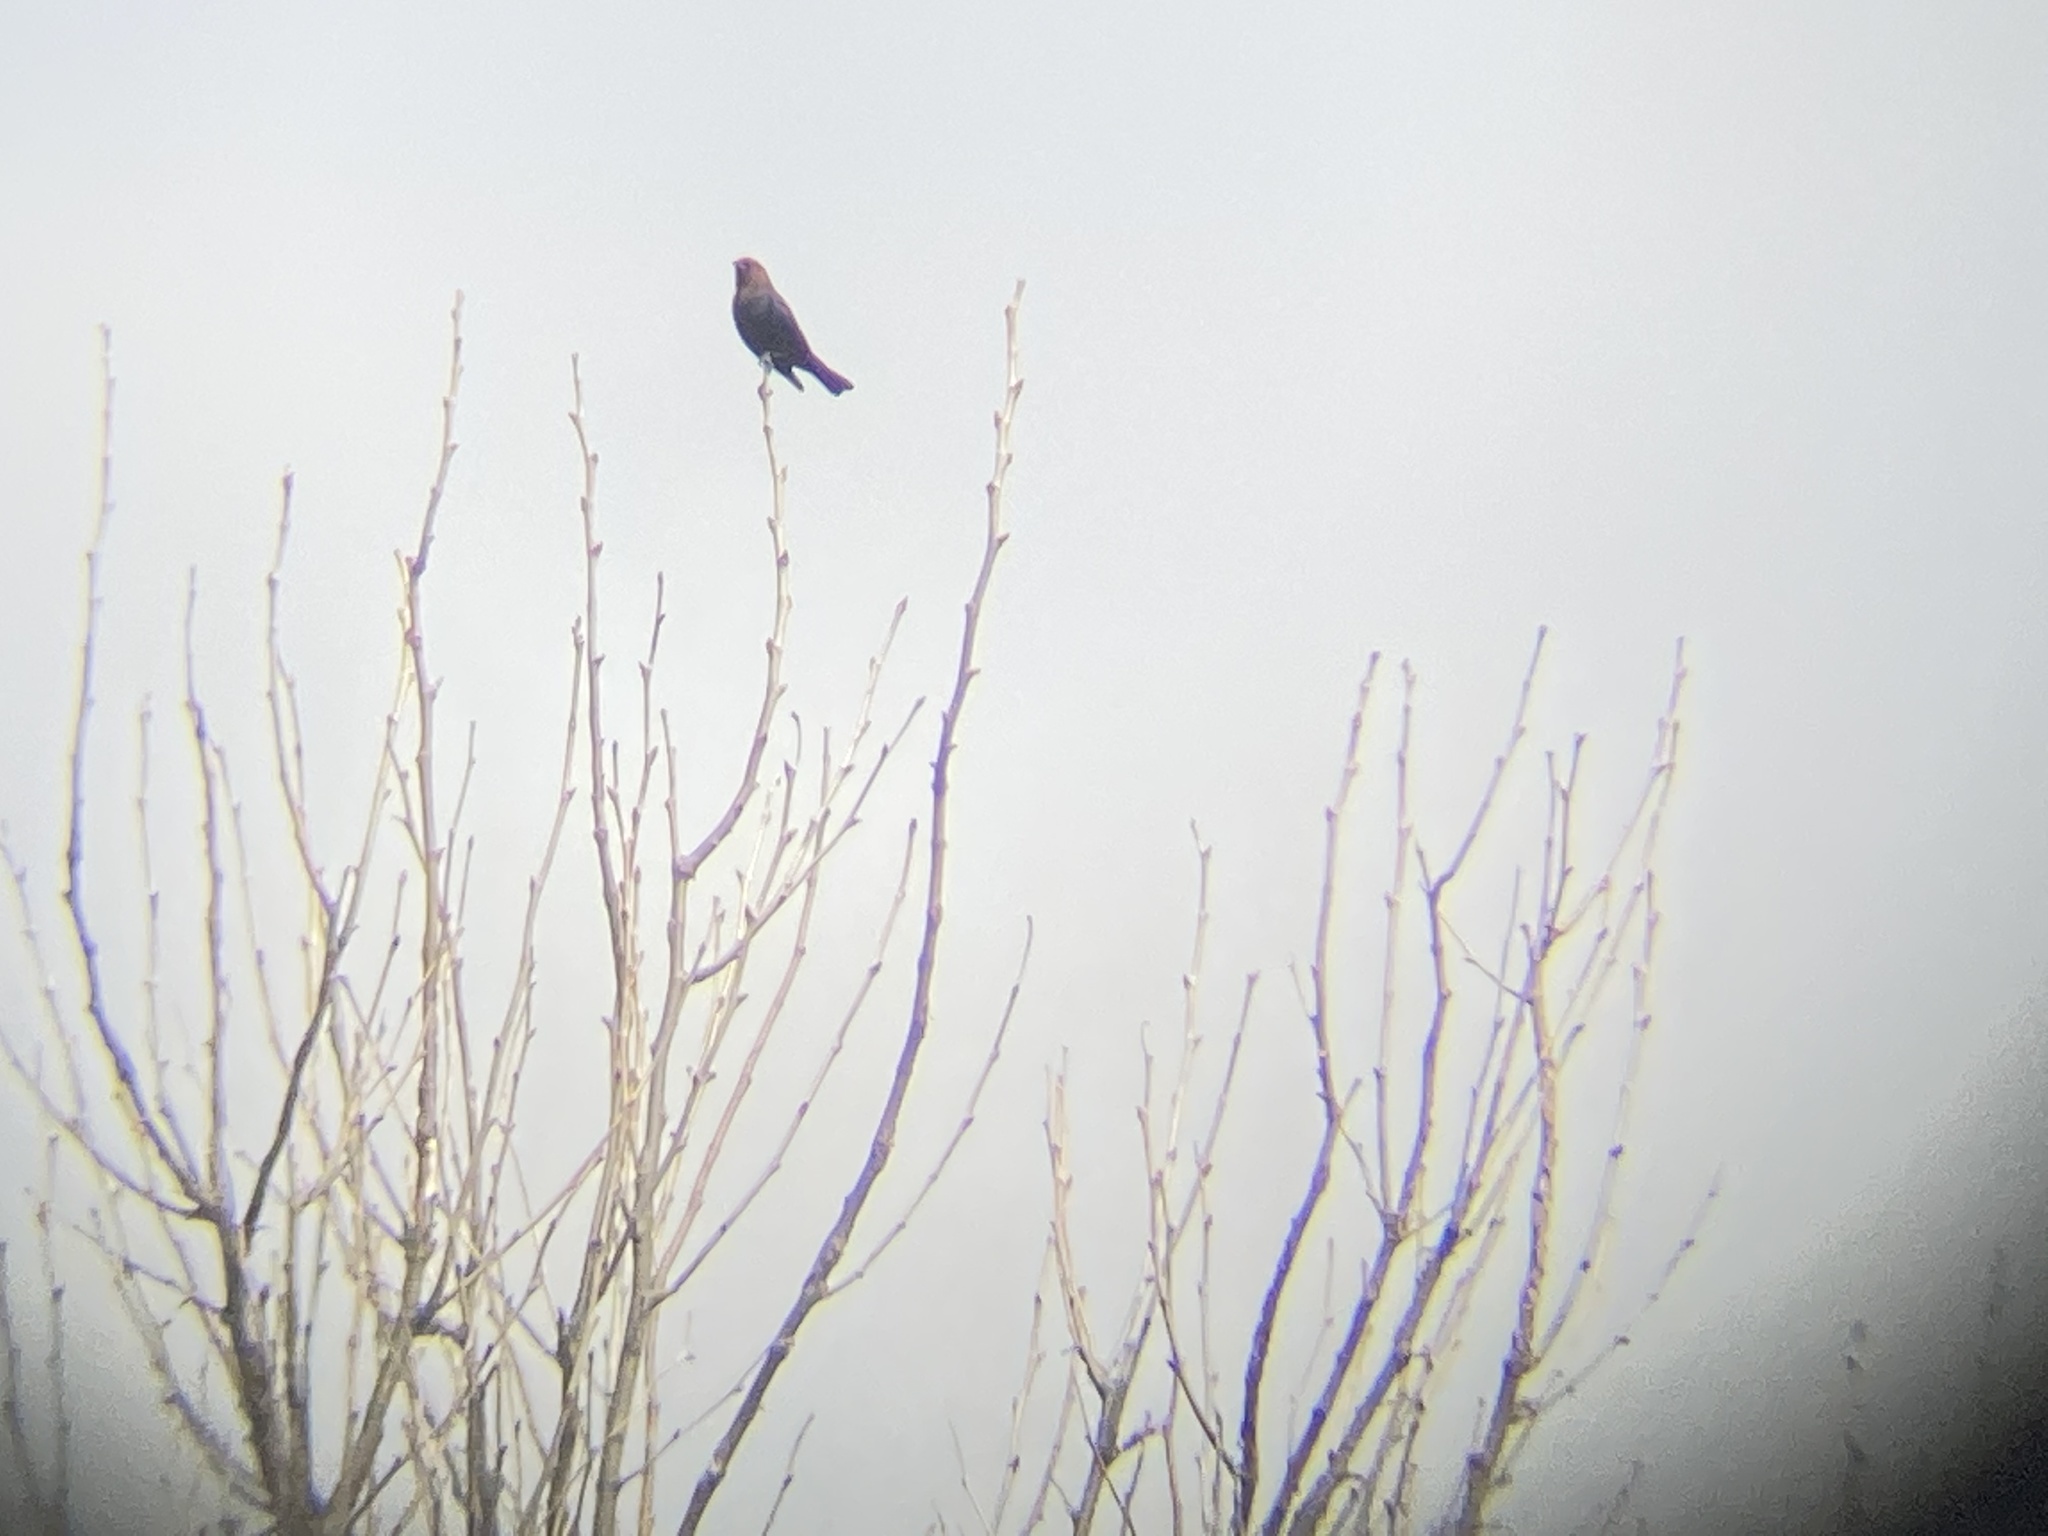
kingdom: Animalia
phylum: Chordata
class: Aves
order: Passeriformes
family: Icteridae
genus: Molothrus
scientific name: Molothrus ater
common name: Brown-headed cowbird
